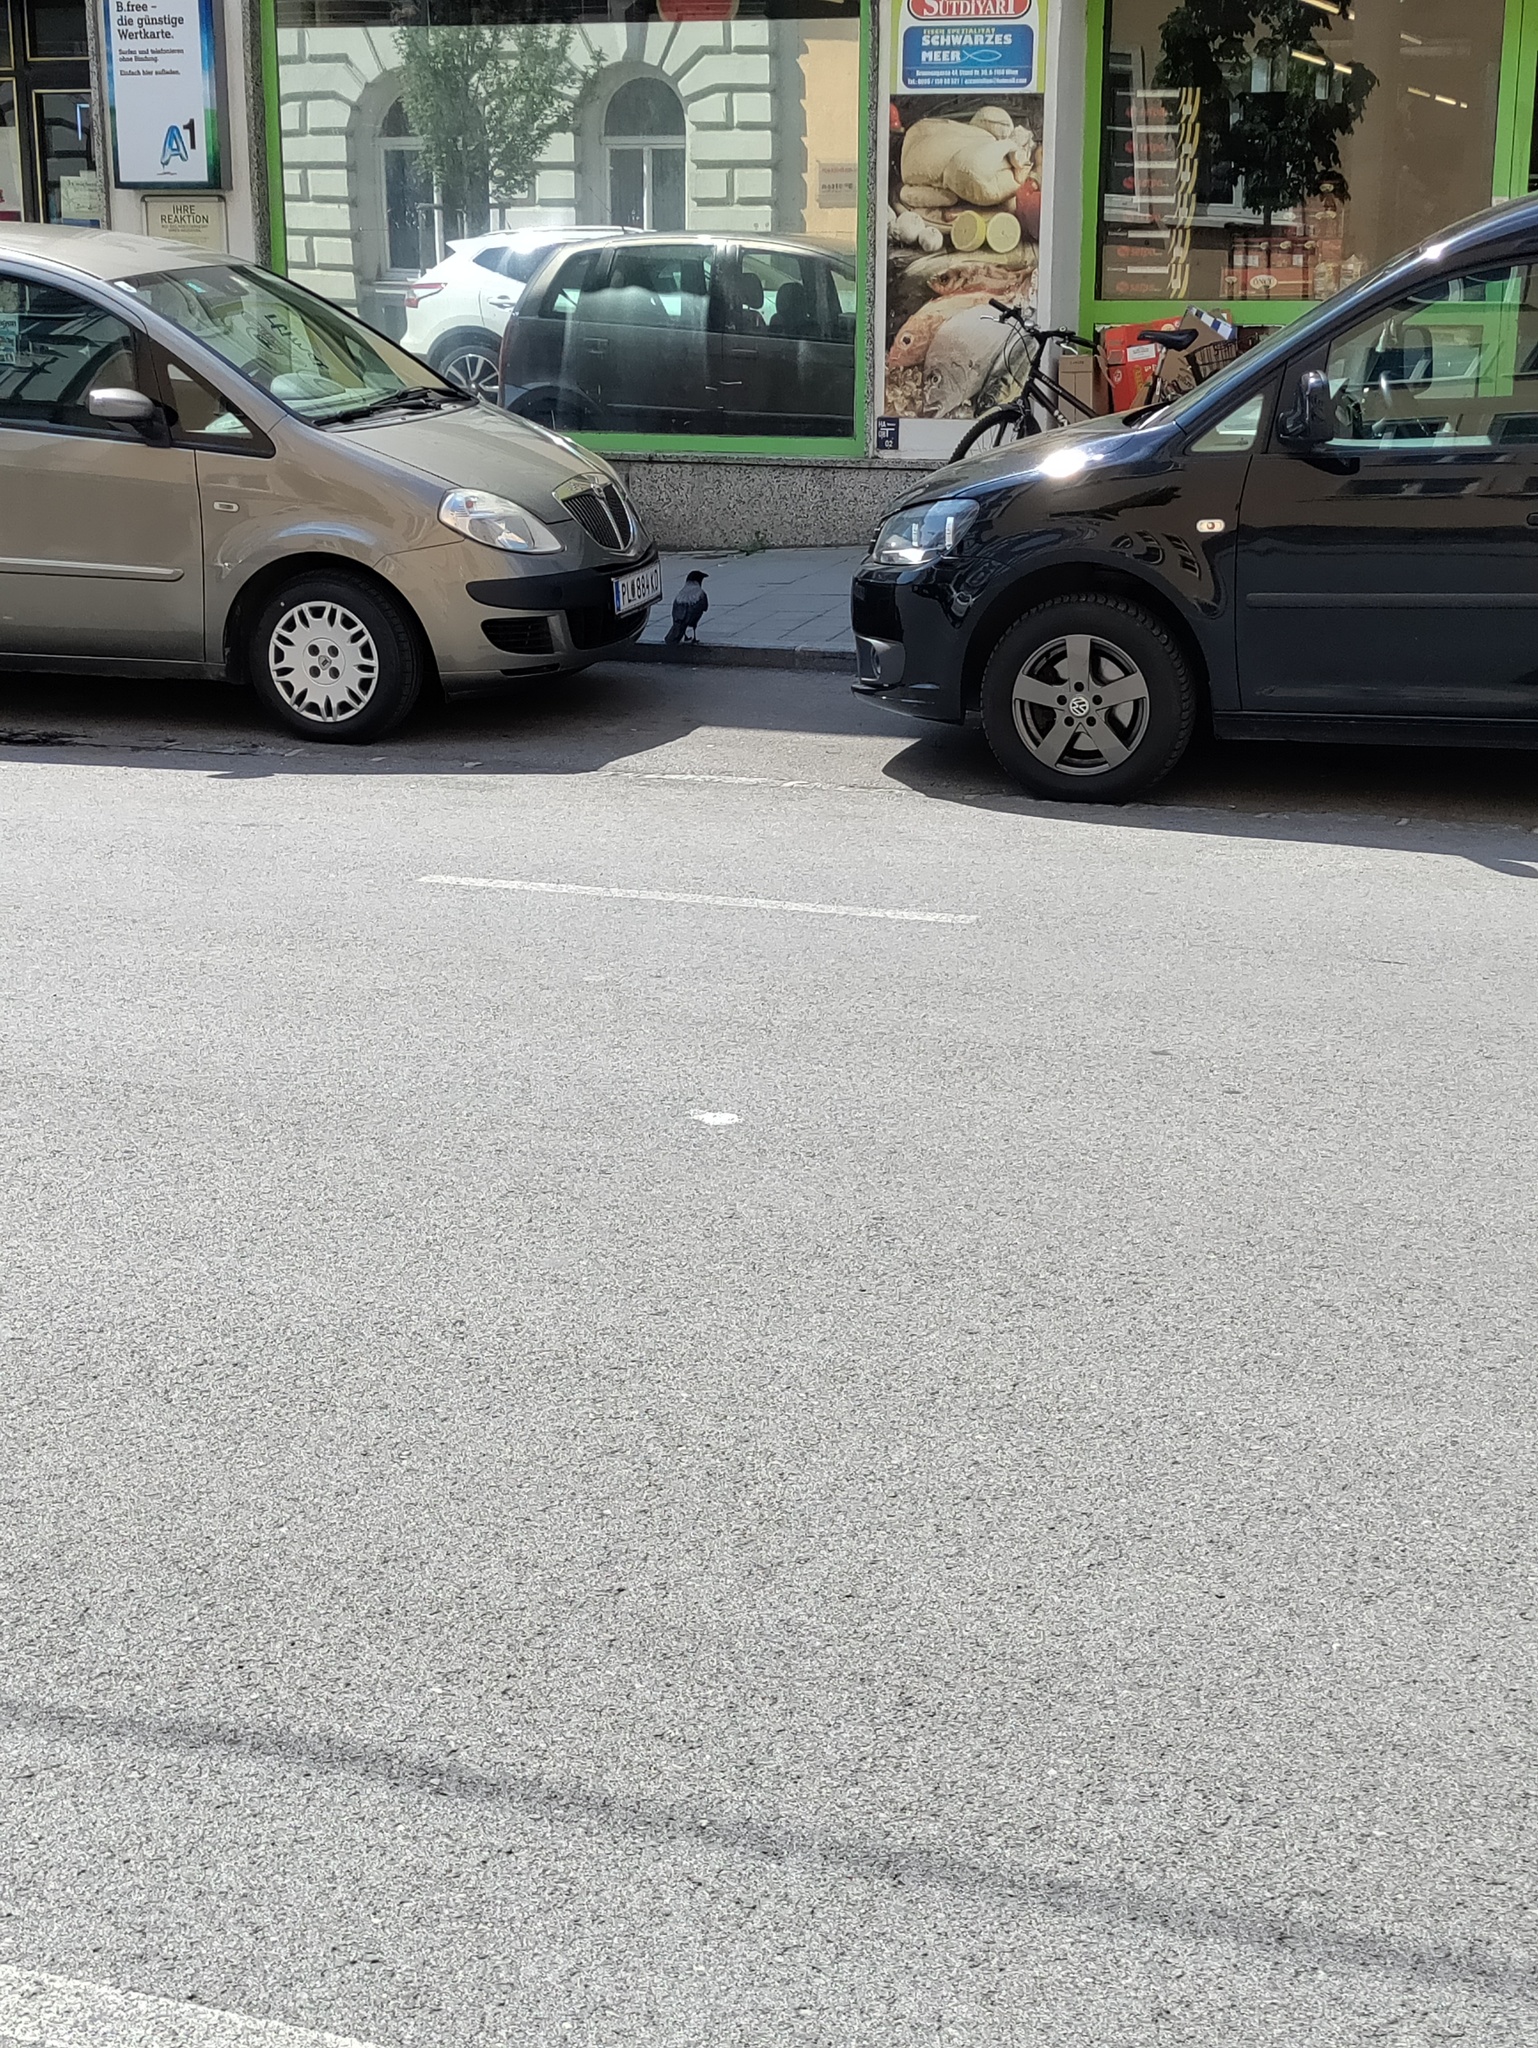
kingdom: Animalia
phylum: Chordata
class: Aves
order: Passeriformes
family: Corvidae
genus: Corvus
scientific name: Corvus cornix
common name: Hooded crow
